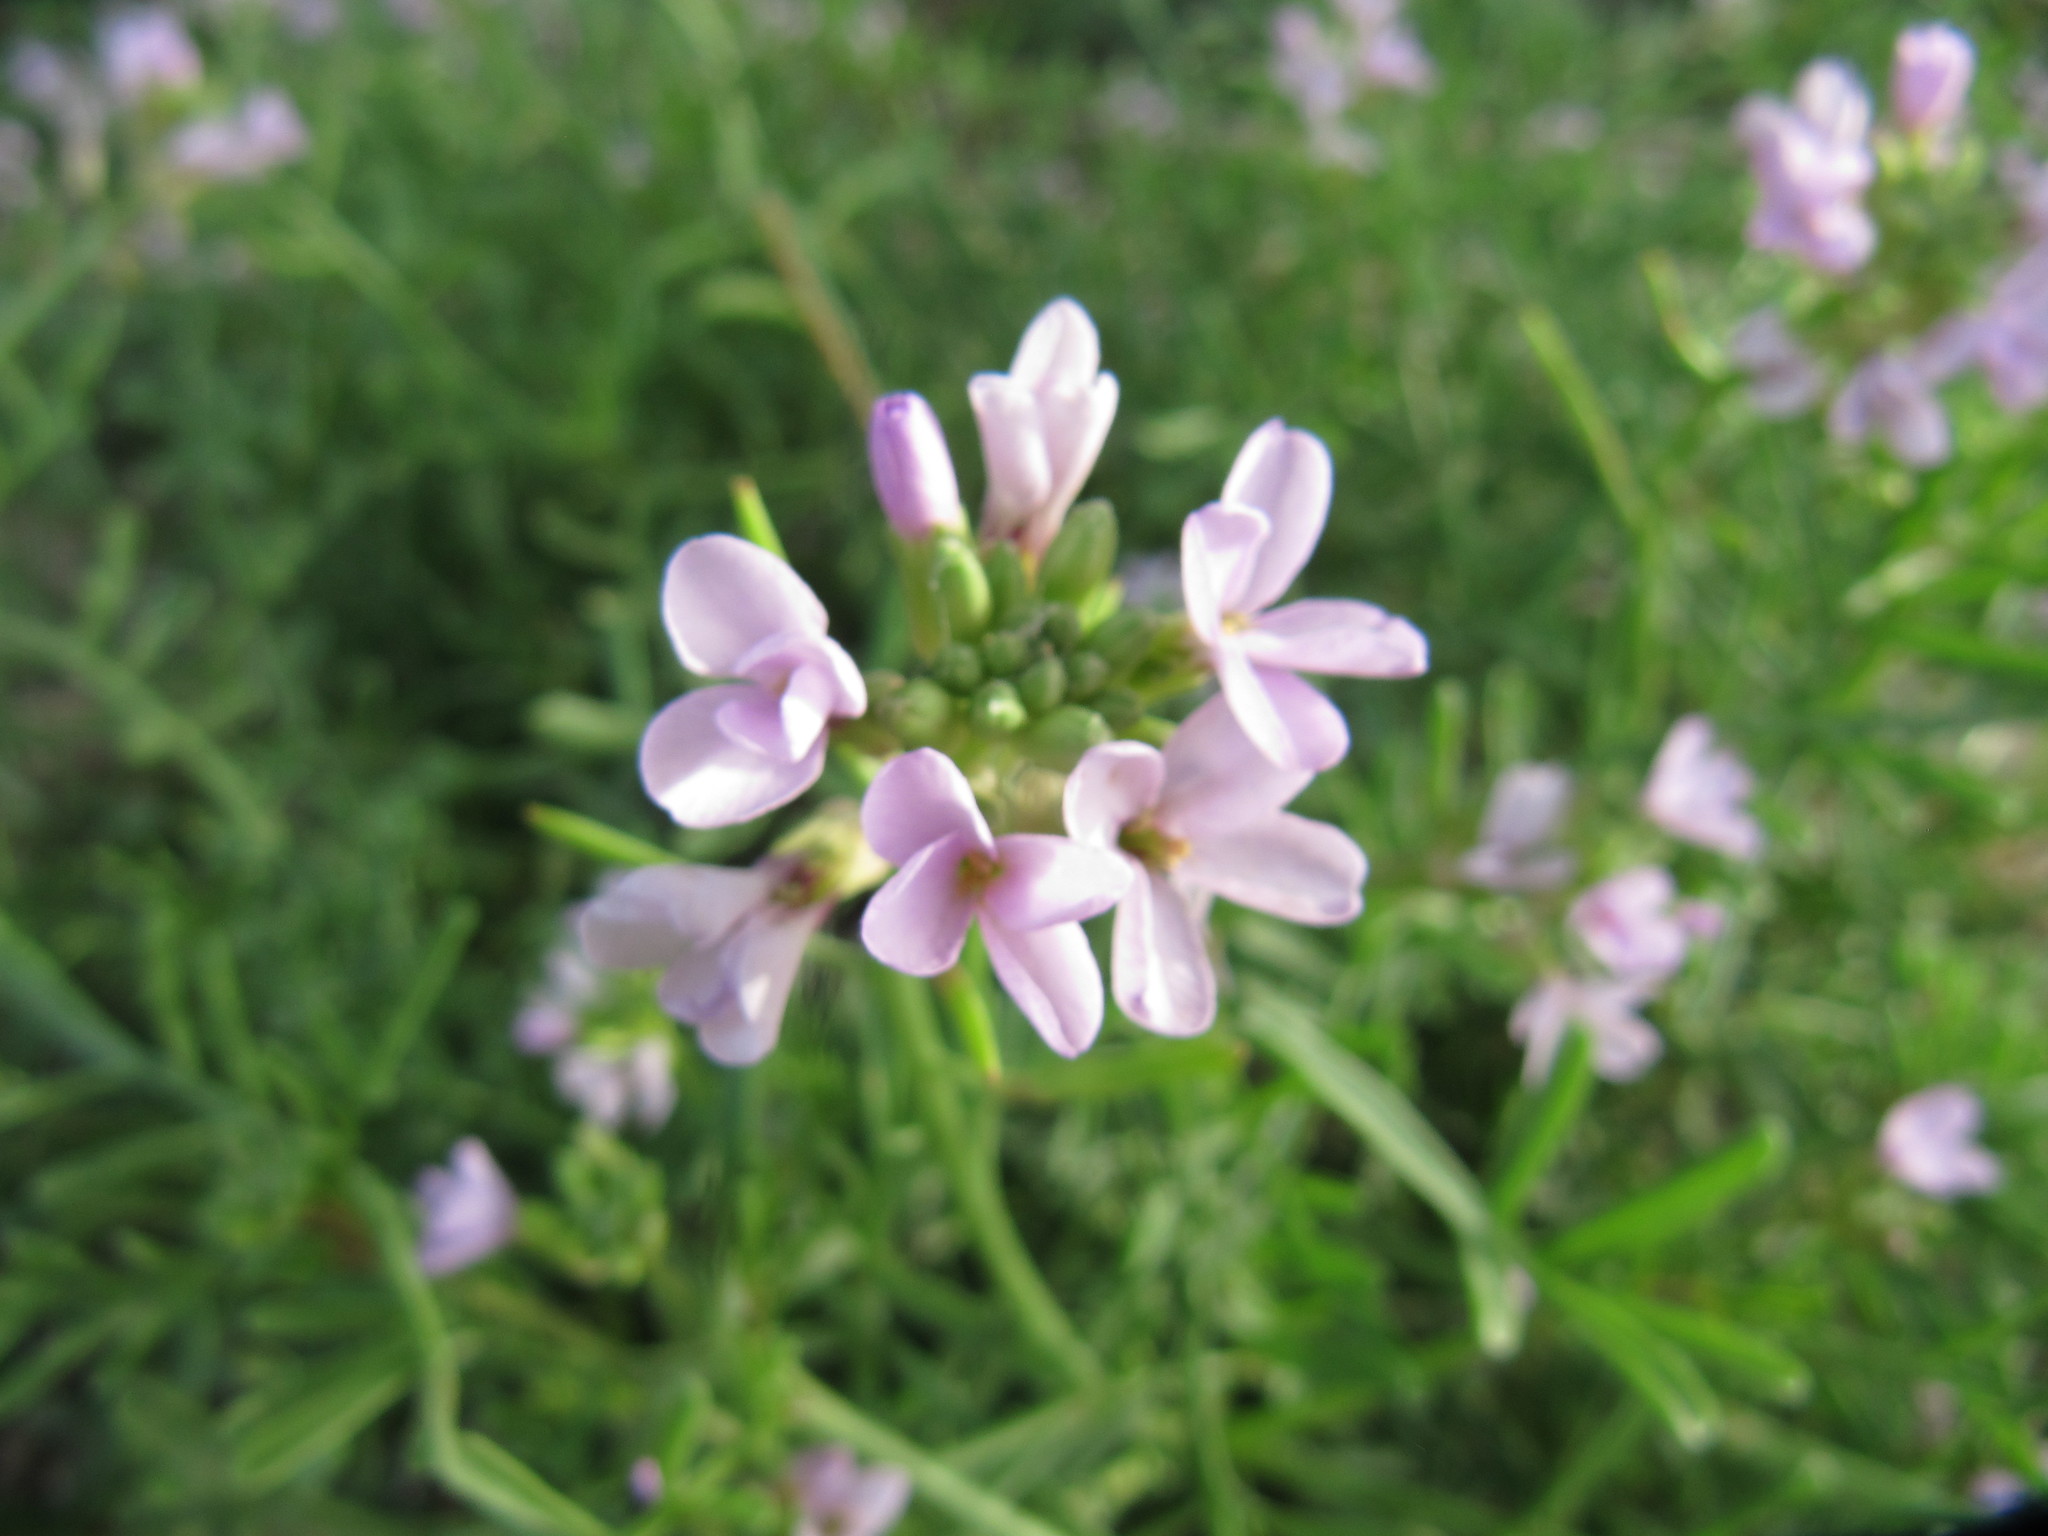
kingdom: Plantae
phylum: Tracheophyta
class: Magnoliopsida
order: Brassicales
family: Brassicaceae
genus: Cakile
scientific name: Cakile maritima
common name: Sea rocket
